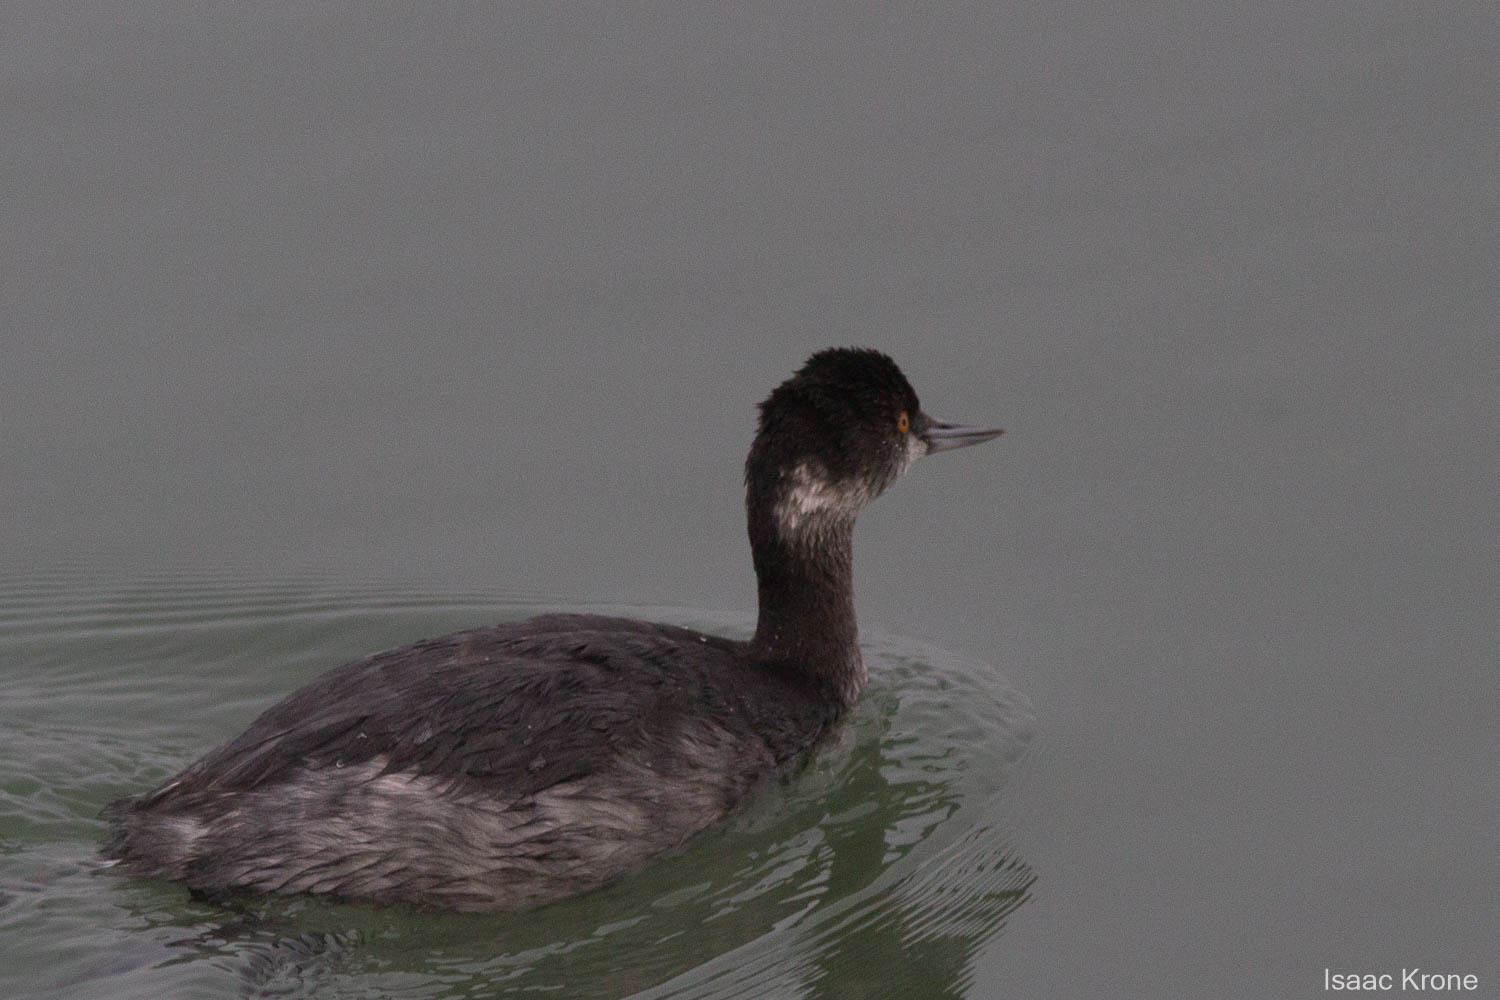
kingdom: Animalia
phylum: Chordata
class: Aves
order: Podicipediformes
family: Podicipedidae
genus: Podiceps
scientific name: Podiceps nigricollis
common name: Black-necked grebe
